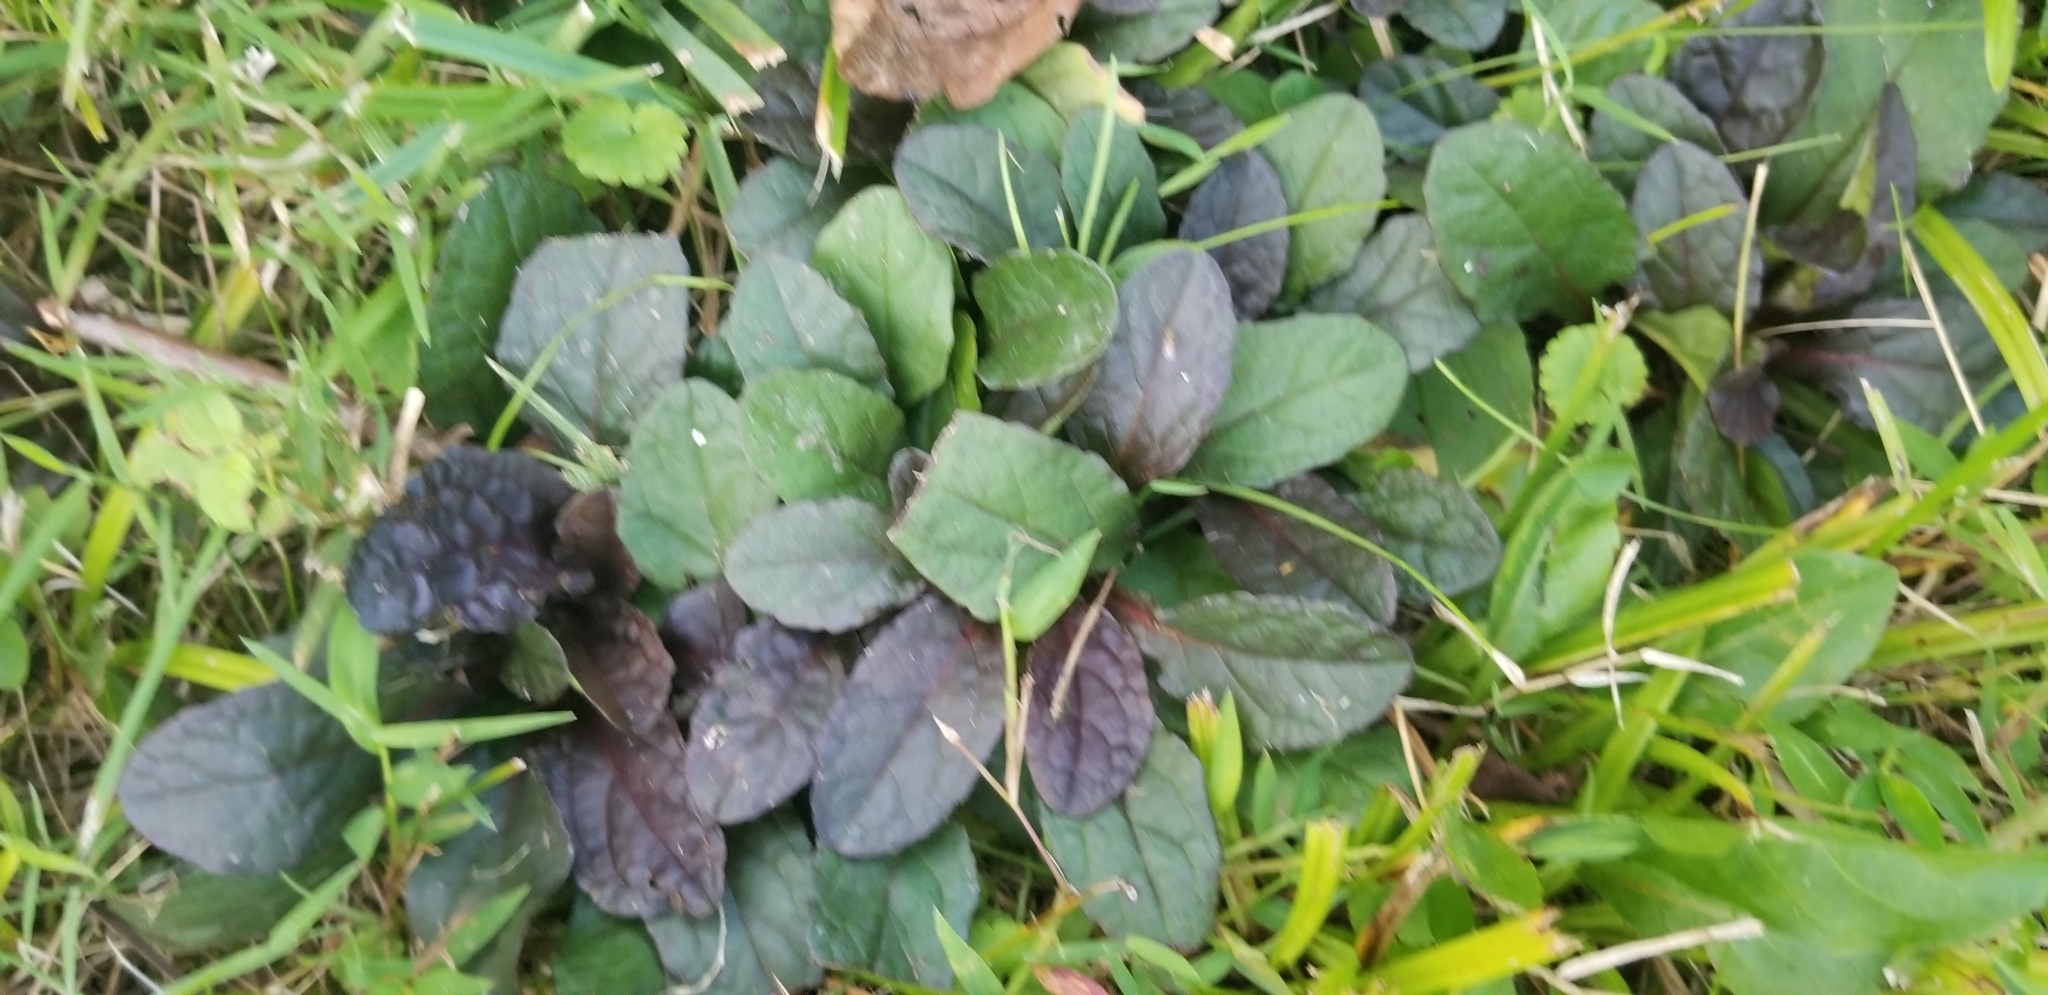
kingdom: Plantae
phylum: Tracheophyta
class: Magnoliopsida
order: Lamiales
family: Lamiaceae
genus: Ajuga
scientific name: Ajuga reptans
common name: Bugle
